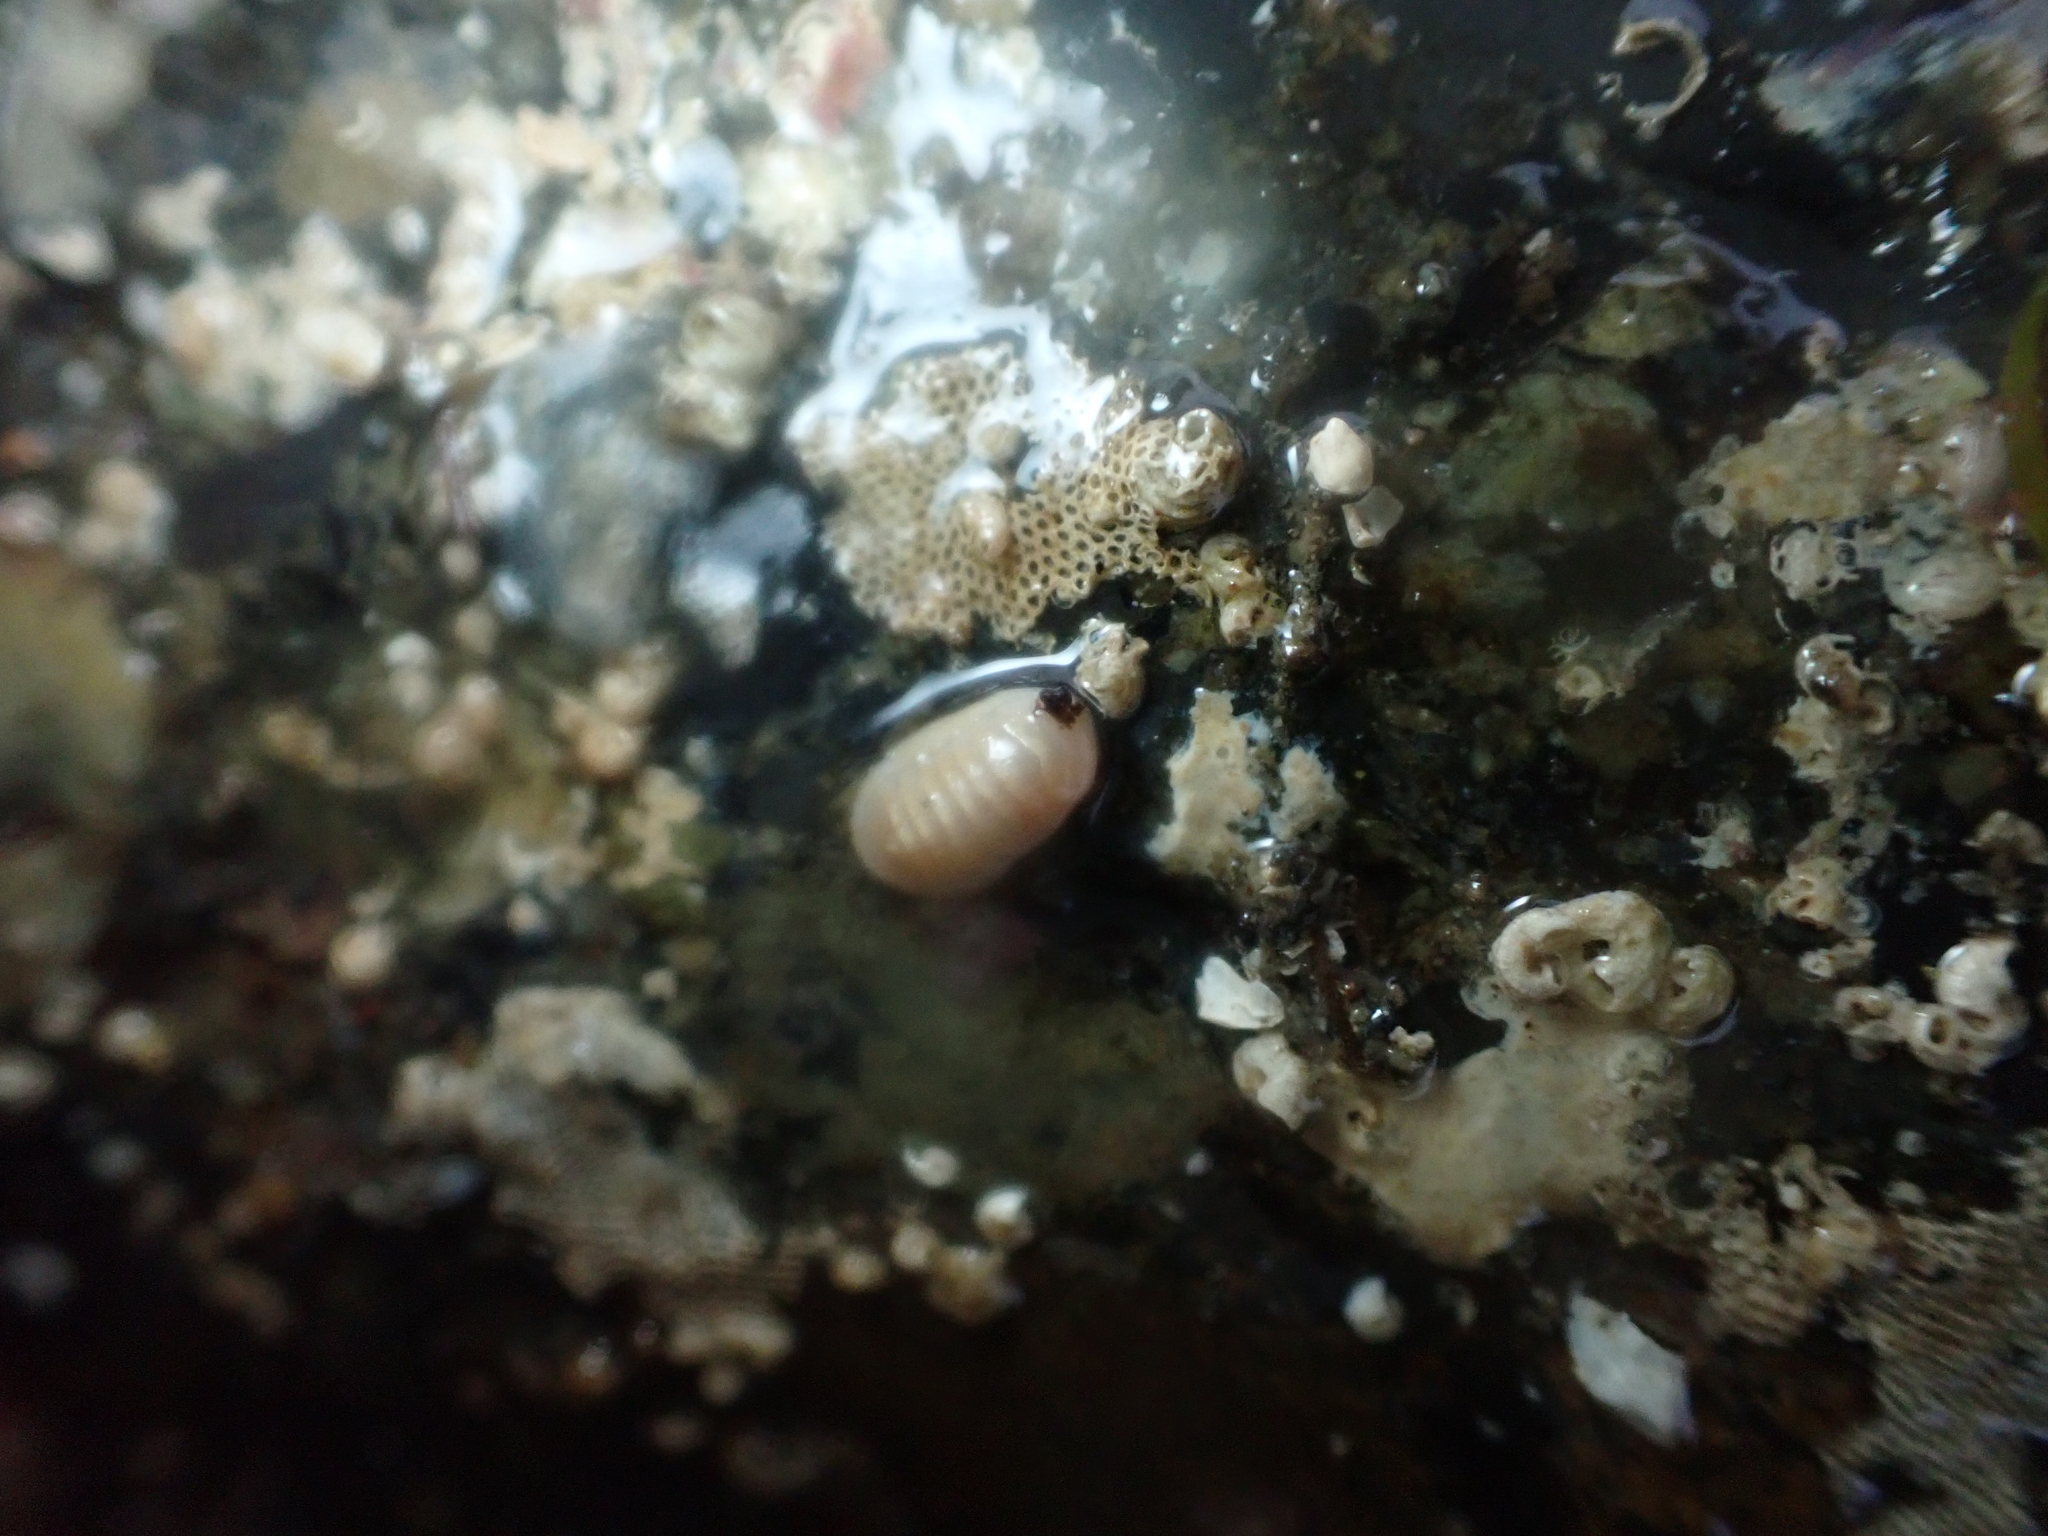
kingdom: Animalia
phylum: Mollusca
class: Polyplacophora
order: Lepidopleurida
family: Leptochitonidae
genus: Leptochiton
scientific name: Leptochiton cascadiensis
